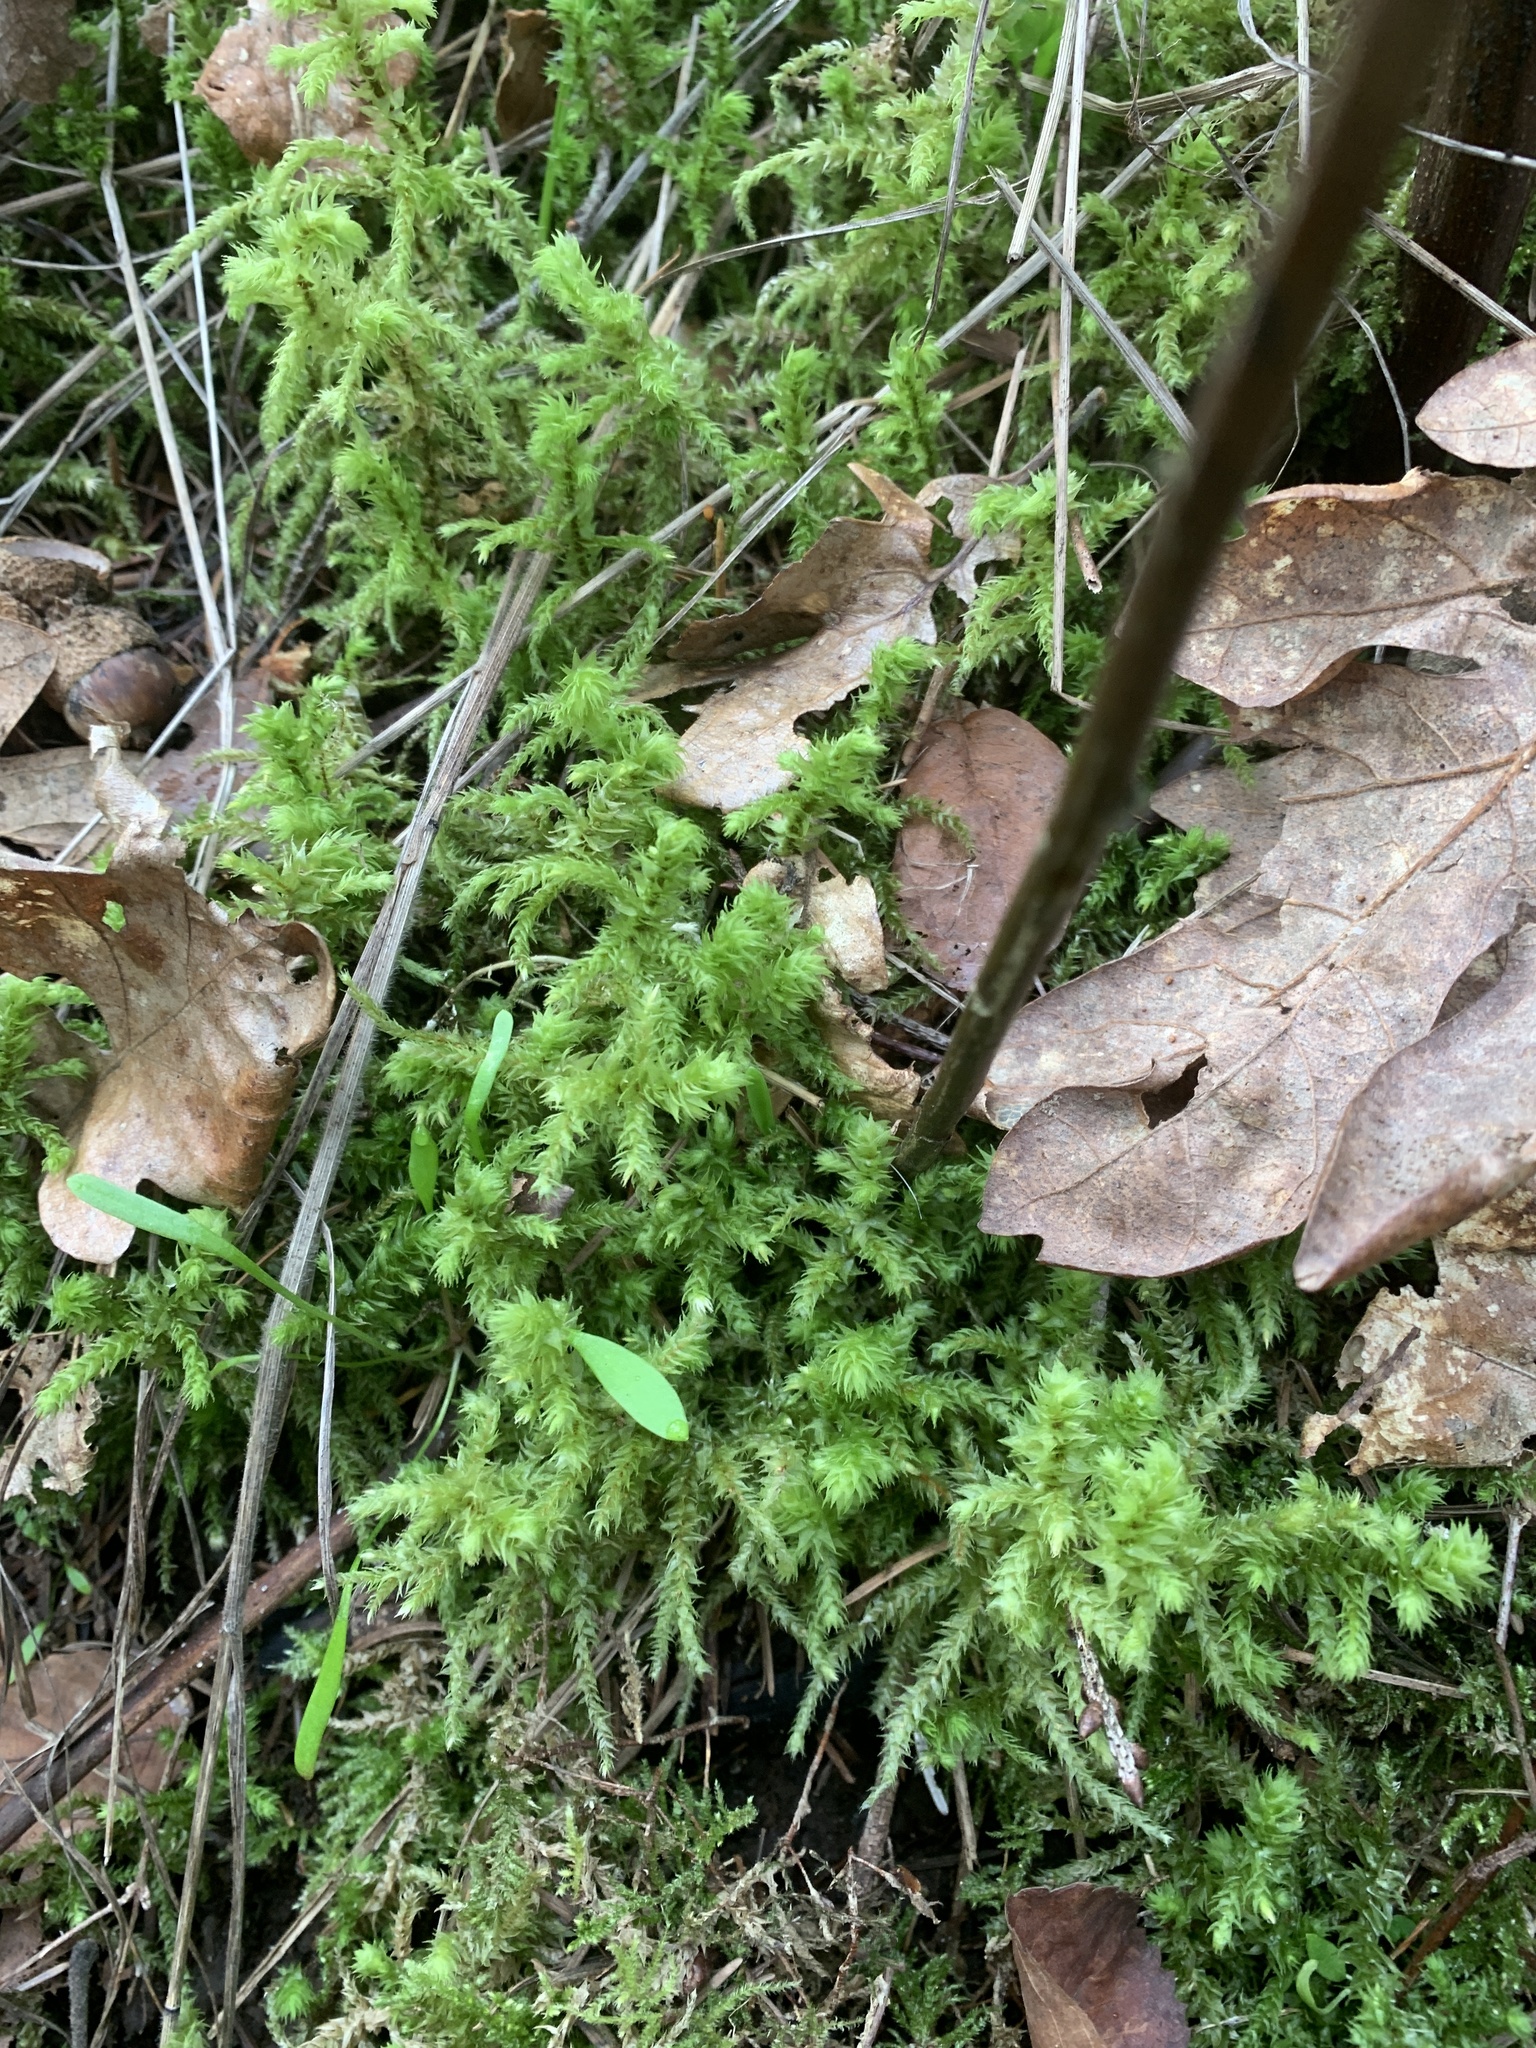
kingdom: Plantae
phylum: Bryophyta
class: Bryopsida
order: Hypnales
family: Hylocomiaceae
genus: Hylocomiadelphus
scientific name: Hylocomiadelphus triquetrus
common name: Rough goose neck moss
